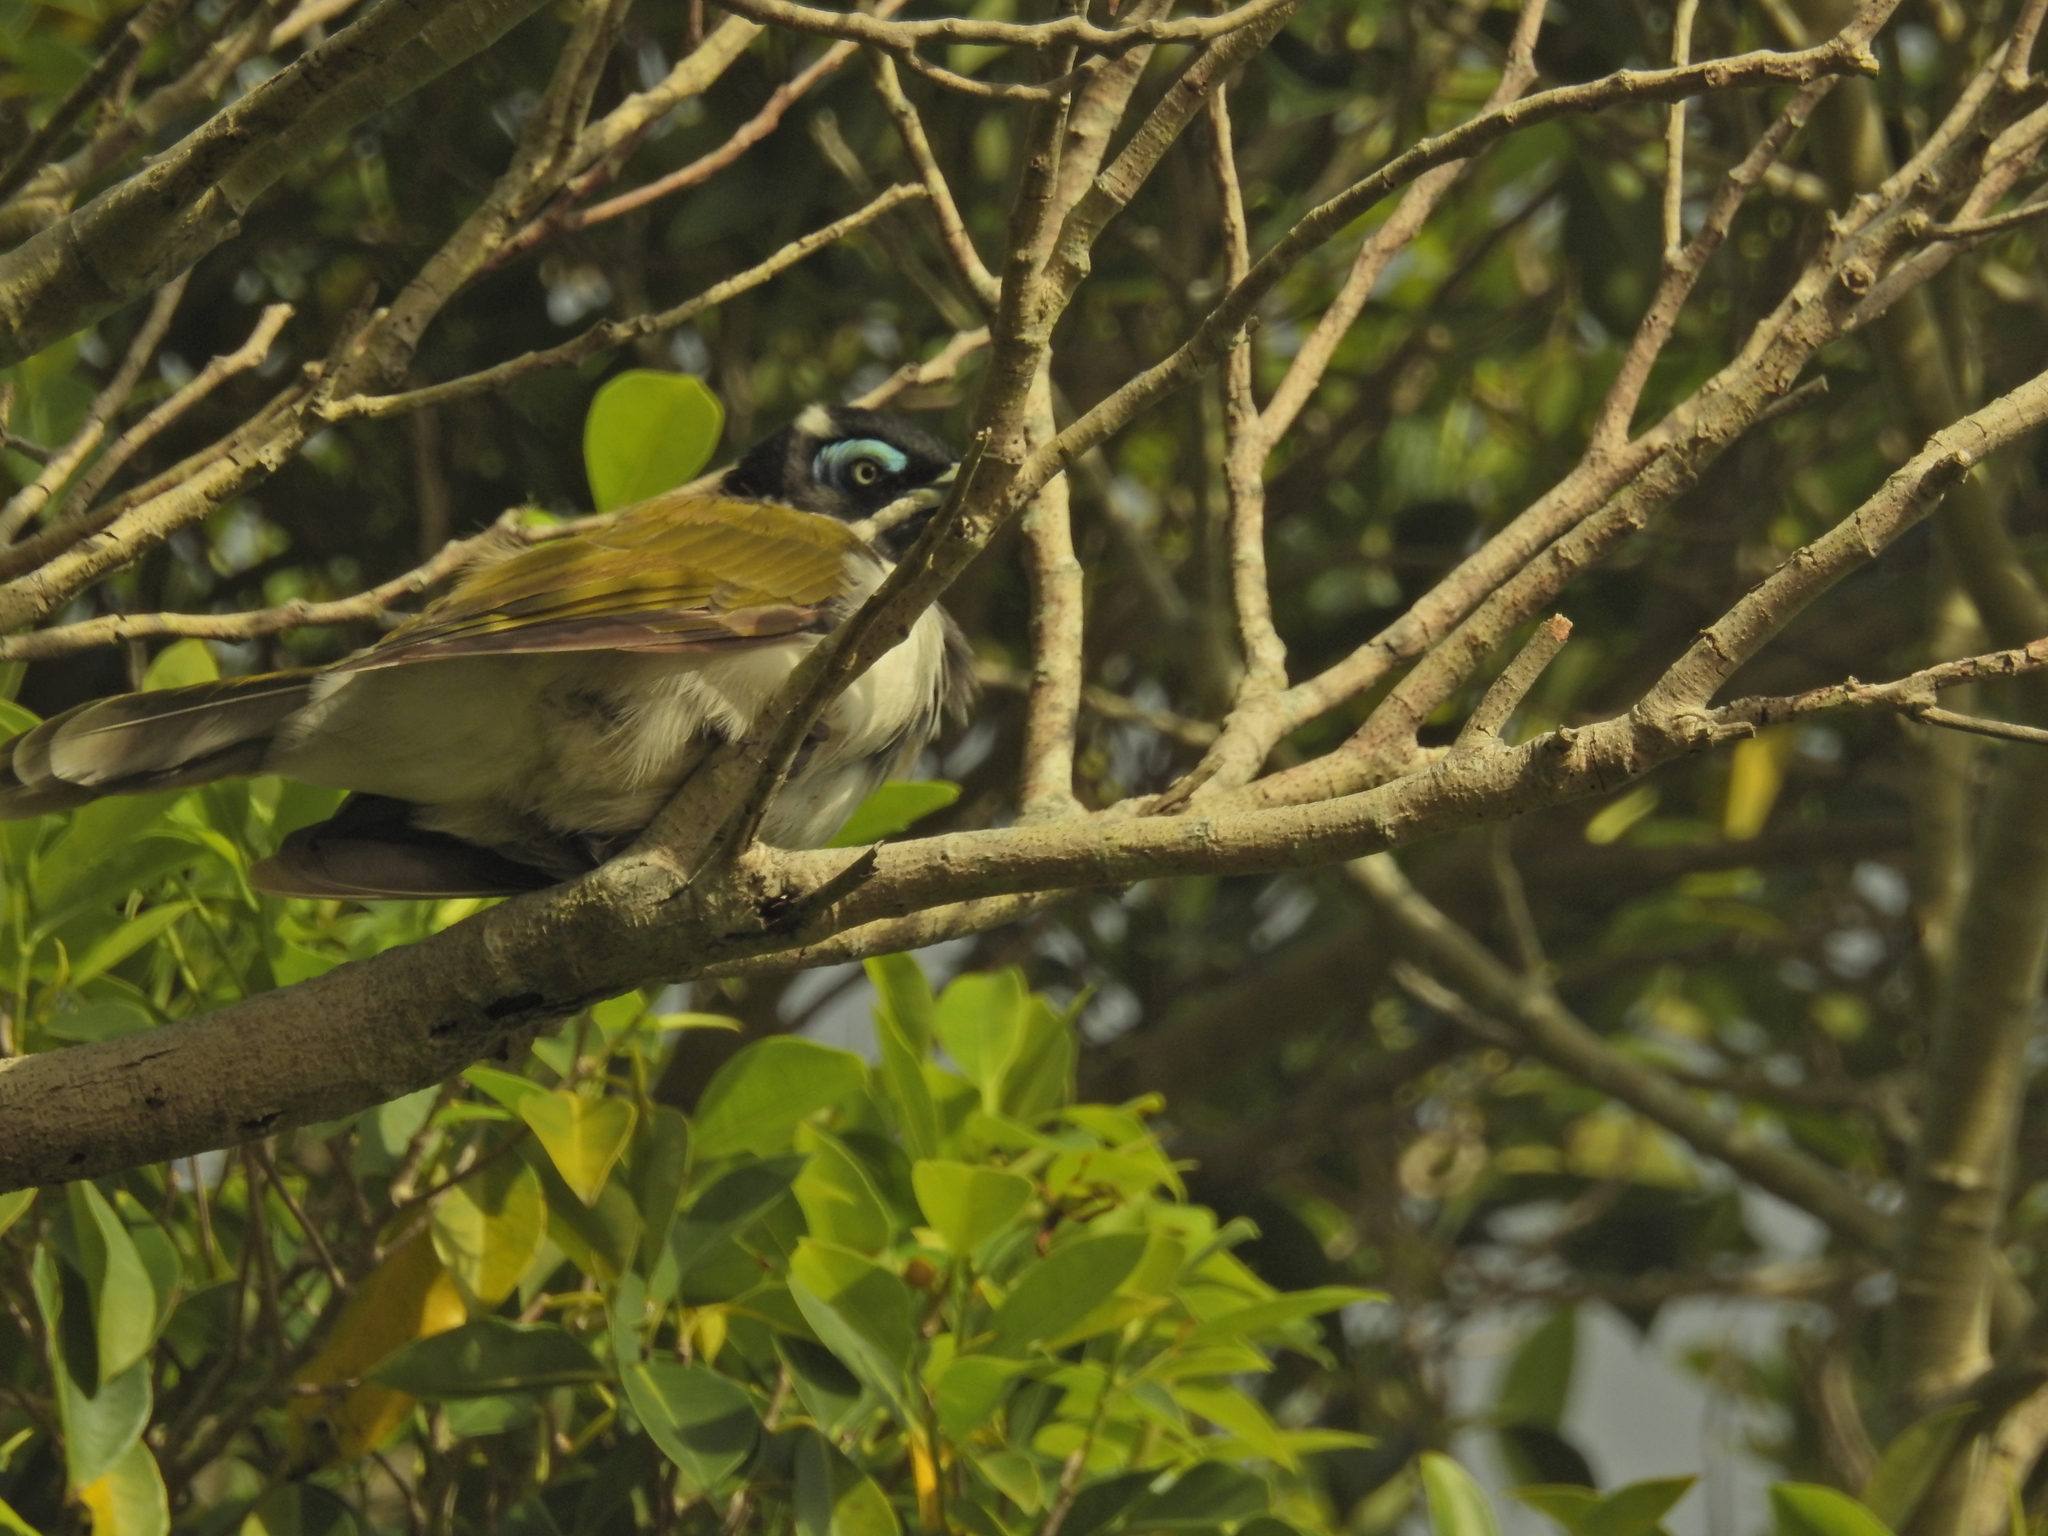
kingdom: Animalia
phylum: Chordata
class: Aves
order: Passeriformes
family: Meliphagidae
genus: Entomyzon
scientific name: Entomyzon cyanotis
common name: Blue-faced honeyeater
